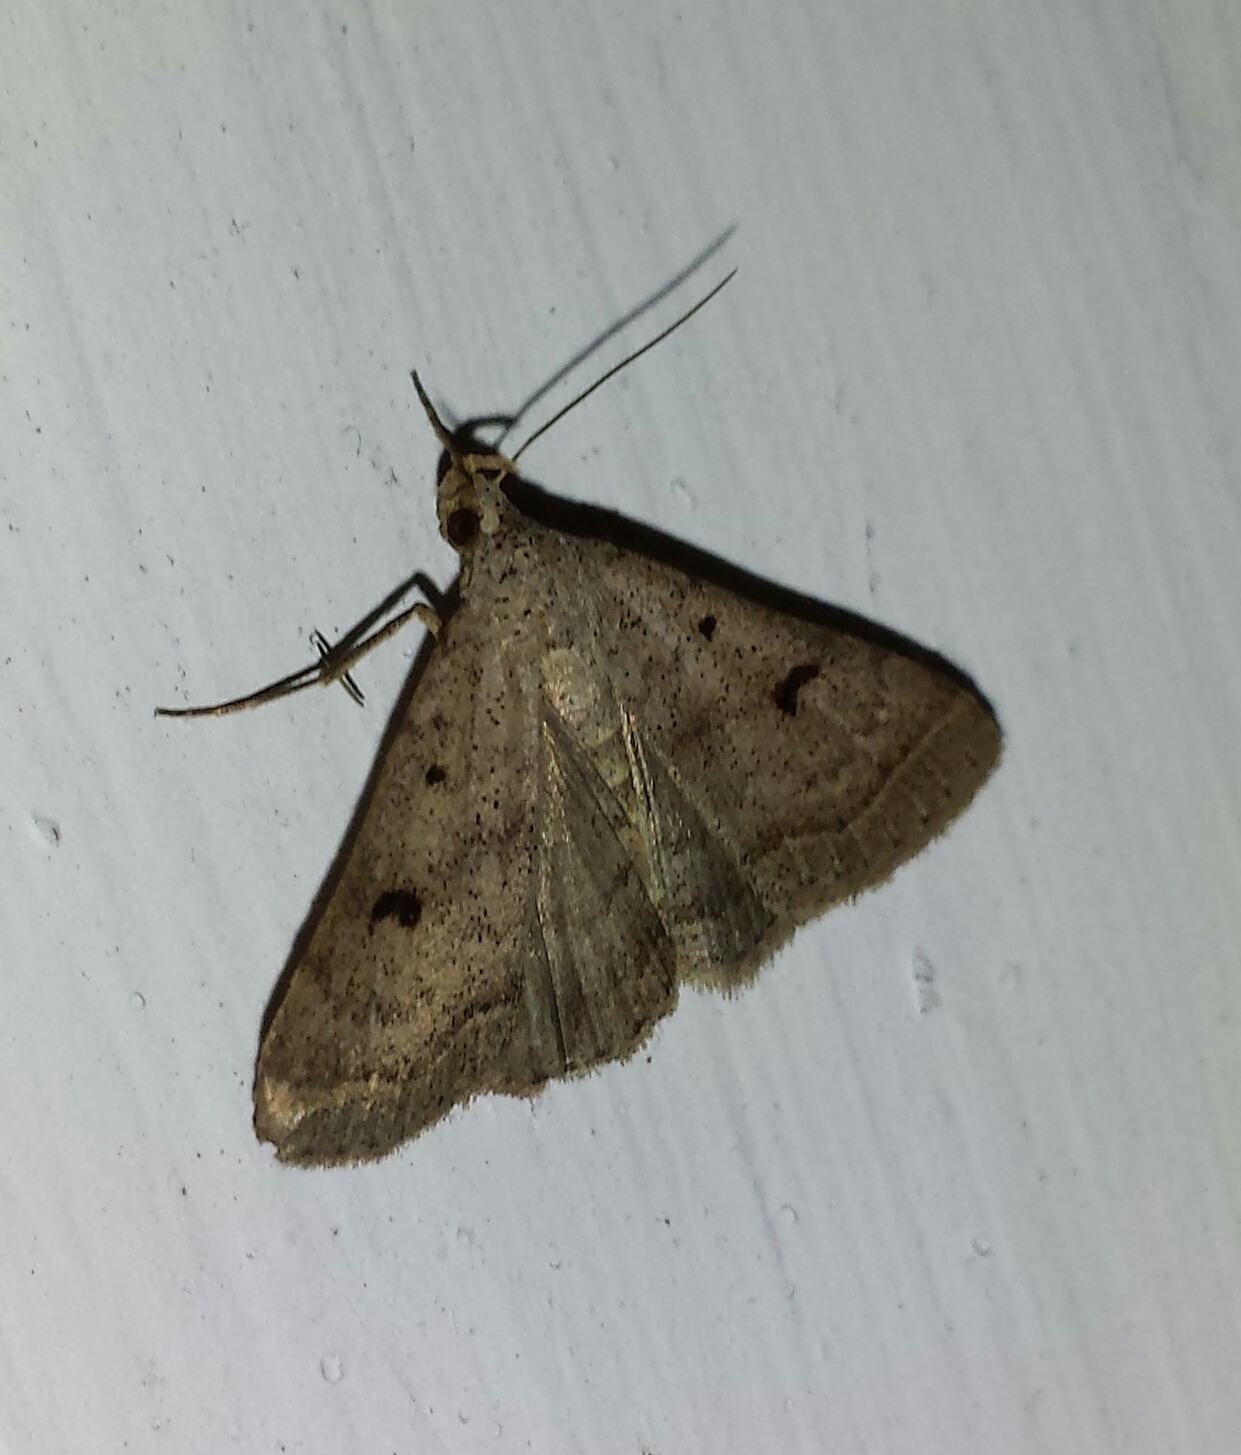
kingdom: Animalia
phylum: Arthropoda
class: Insecta
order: Lepidoptera
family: Erebidae
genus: Bleptina
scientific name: Bleptina caradrinalis
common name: Bent-winged owlet
